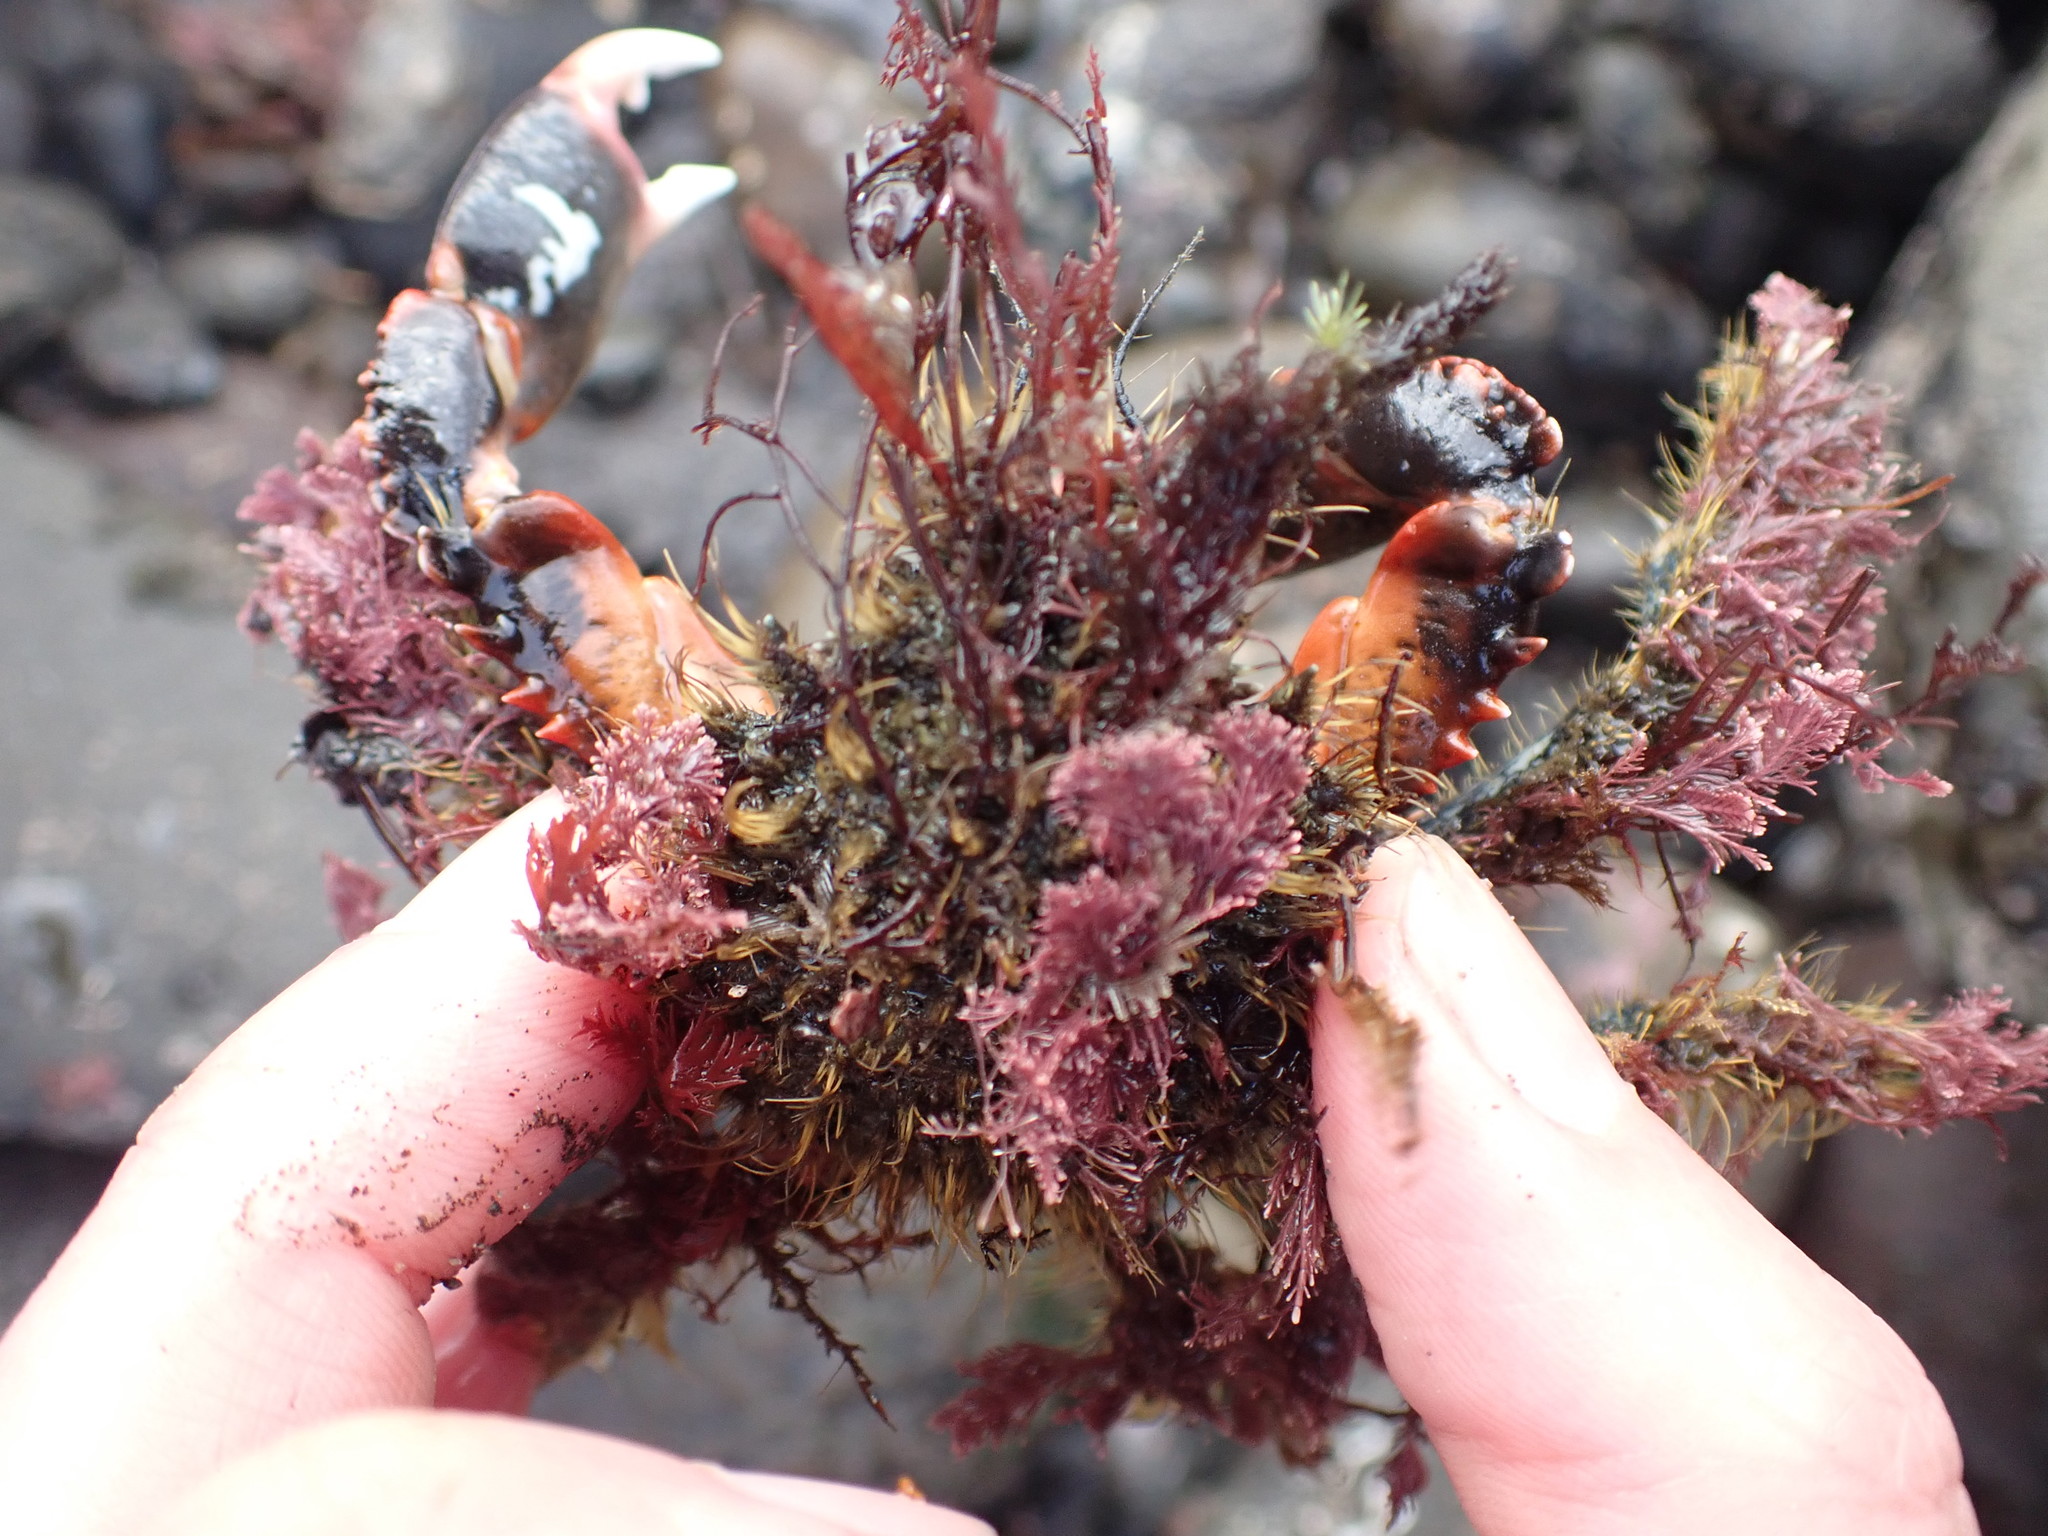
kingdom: Animalia
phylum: Arthropoda
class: Malacostraca
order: Decapoda
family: Majidae
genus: Notomithrax
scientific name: Notomithrax ursus
